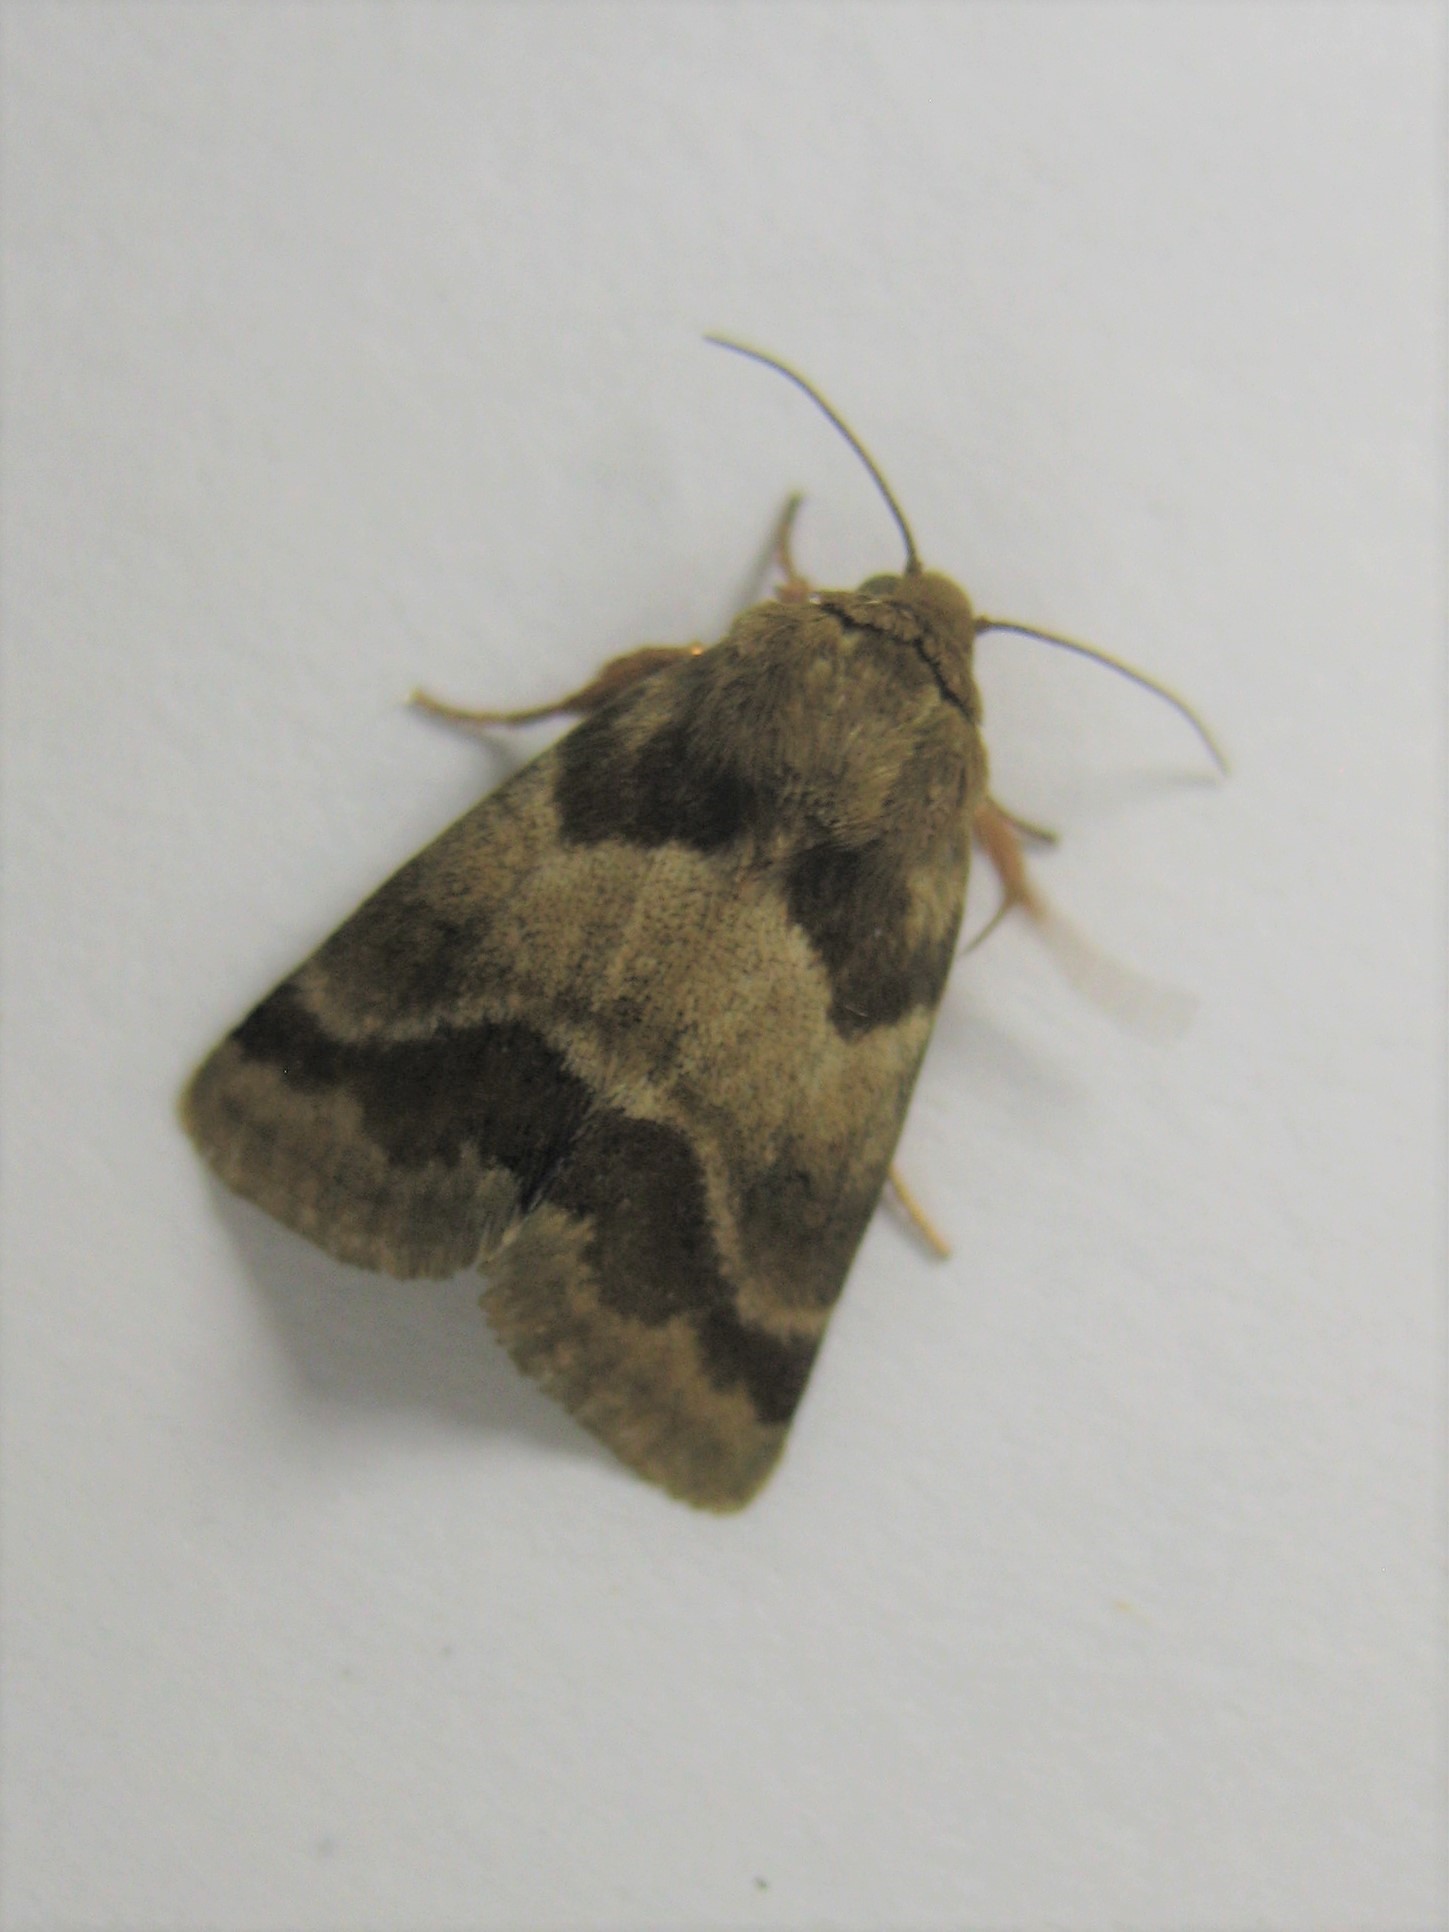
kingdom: Animalia
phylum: Arthropoda
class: Insecta
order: Lepidoptera
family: Noctuidae
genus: Schinia
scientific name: Schinia obscurata
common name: Erigeron flower moth
